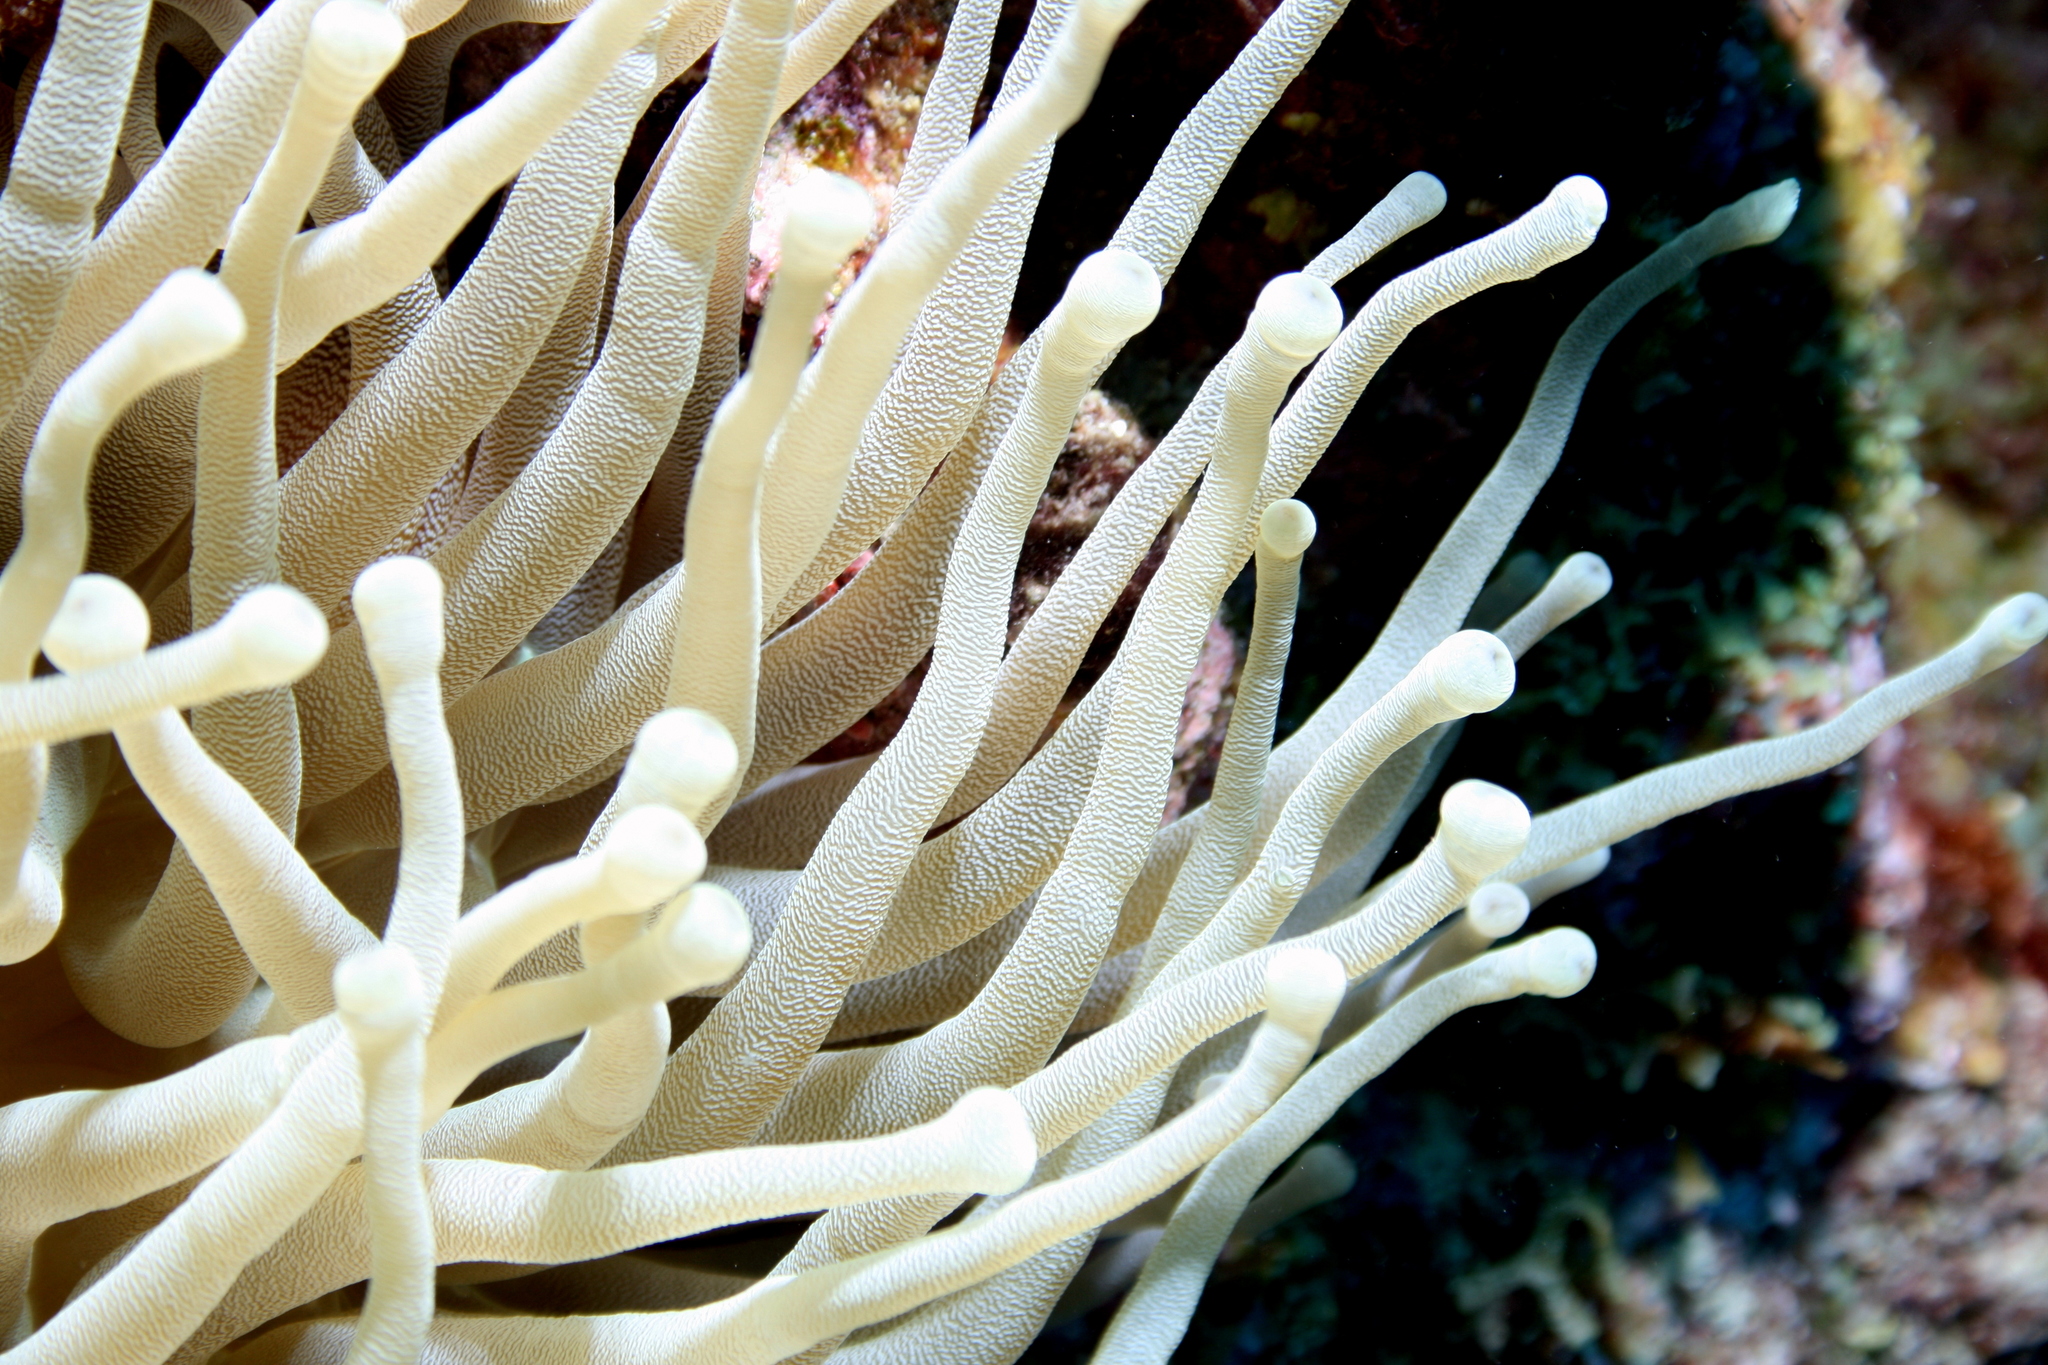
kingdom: Animalia
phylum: Cnidaria
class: Anthozoa
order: Actiniaria
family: Actiniidae
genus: Condylactis
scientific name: Condylactis gigantea
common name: Giant caribbean anemone
